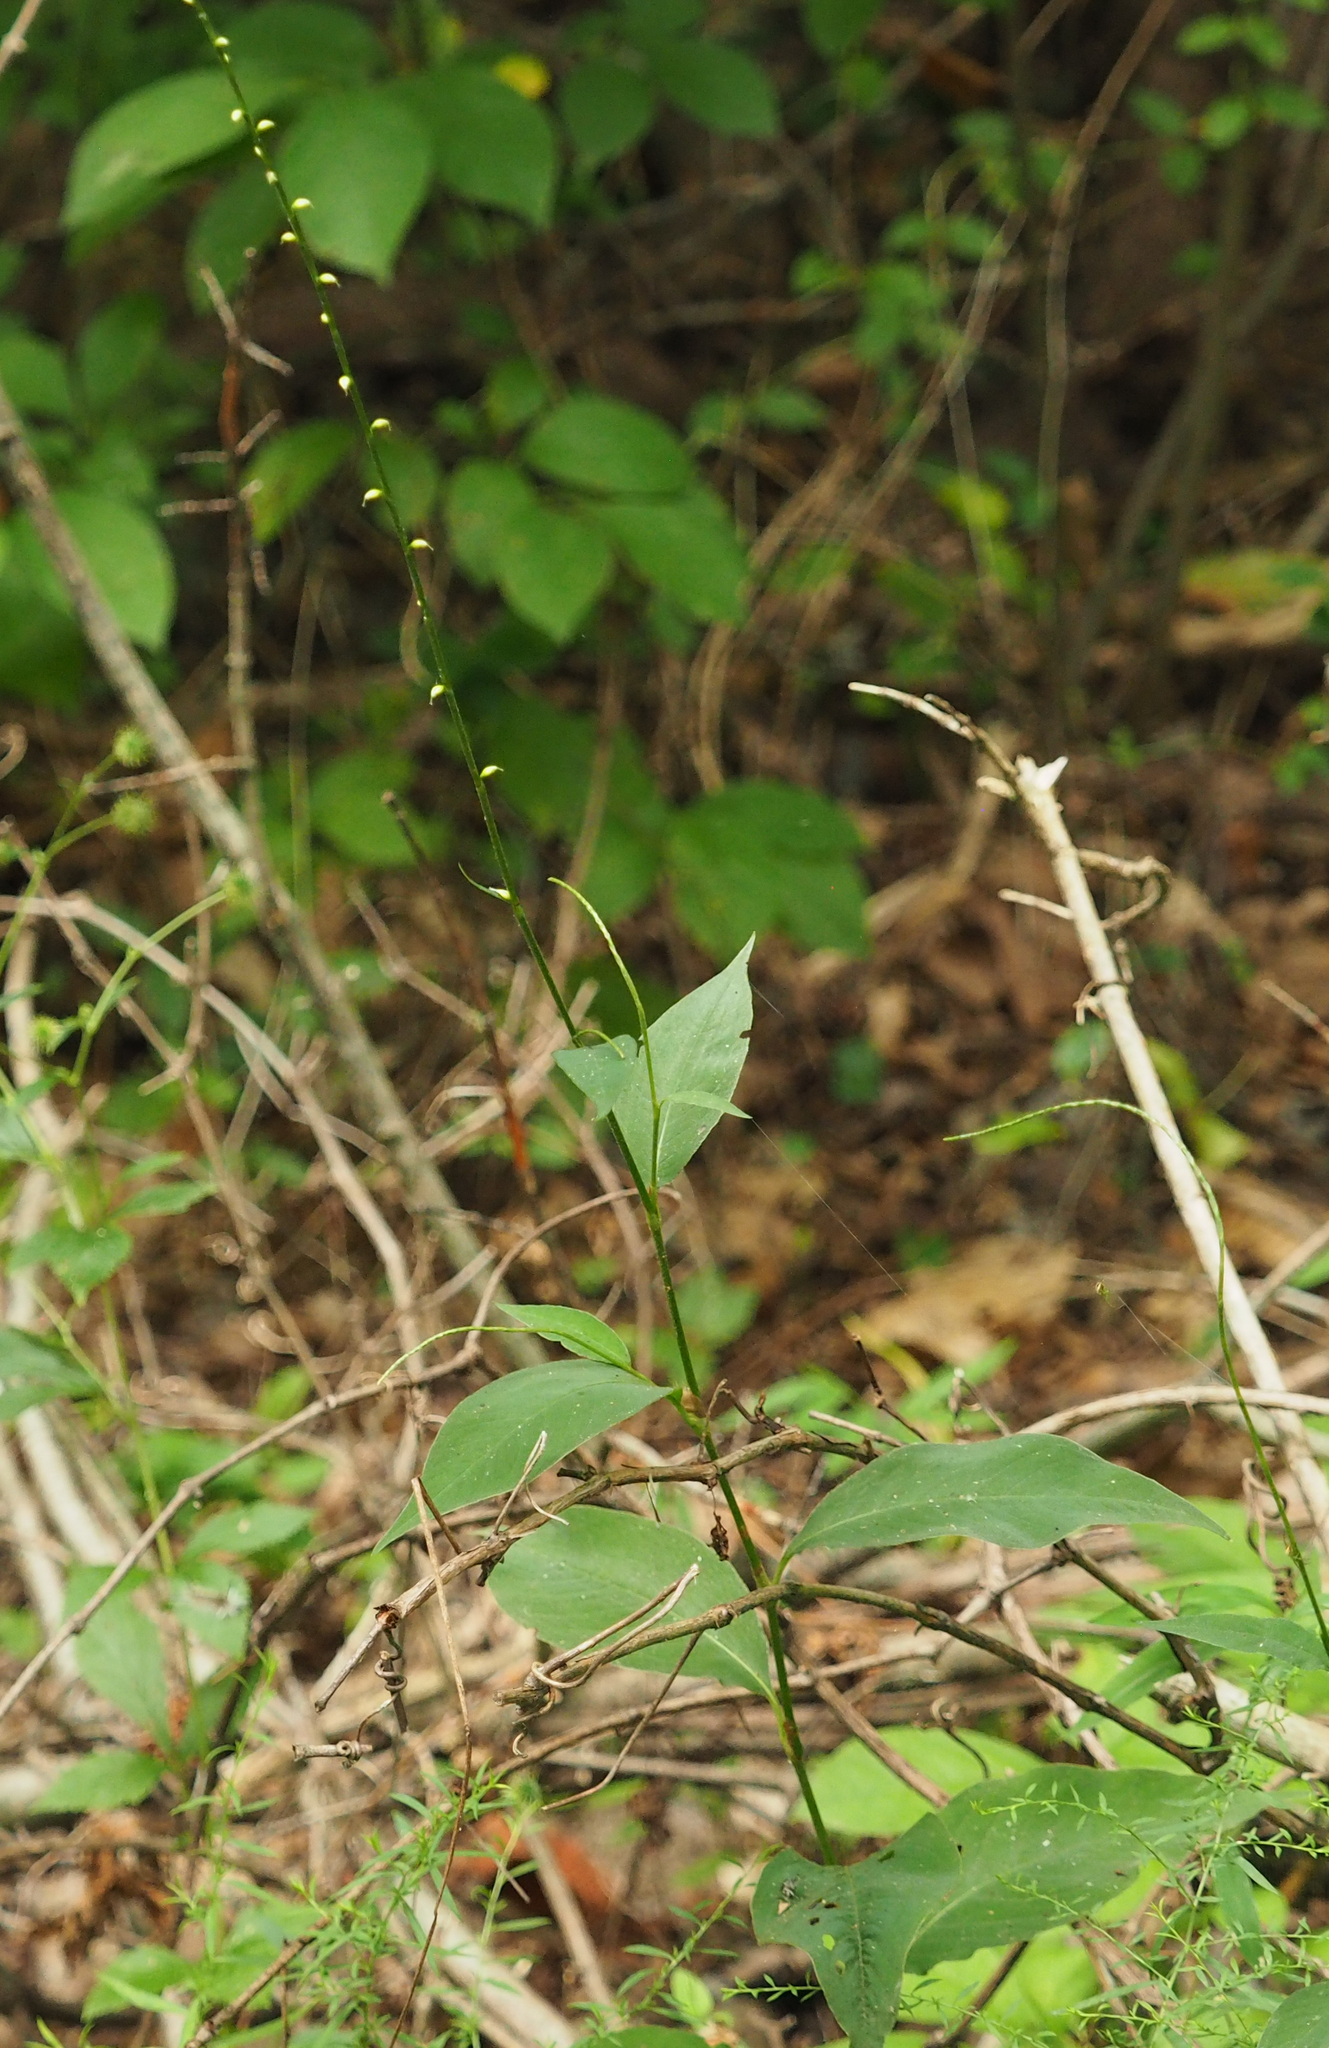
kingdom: Plantae
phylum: Tracheophyta
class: Magnoliopsida
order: Caryophyllales
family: Polygonaceae
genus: Persicaria
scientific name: Persicaria virginiana
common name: Jumpseed
